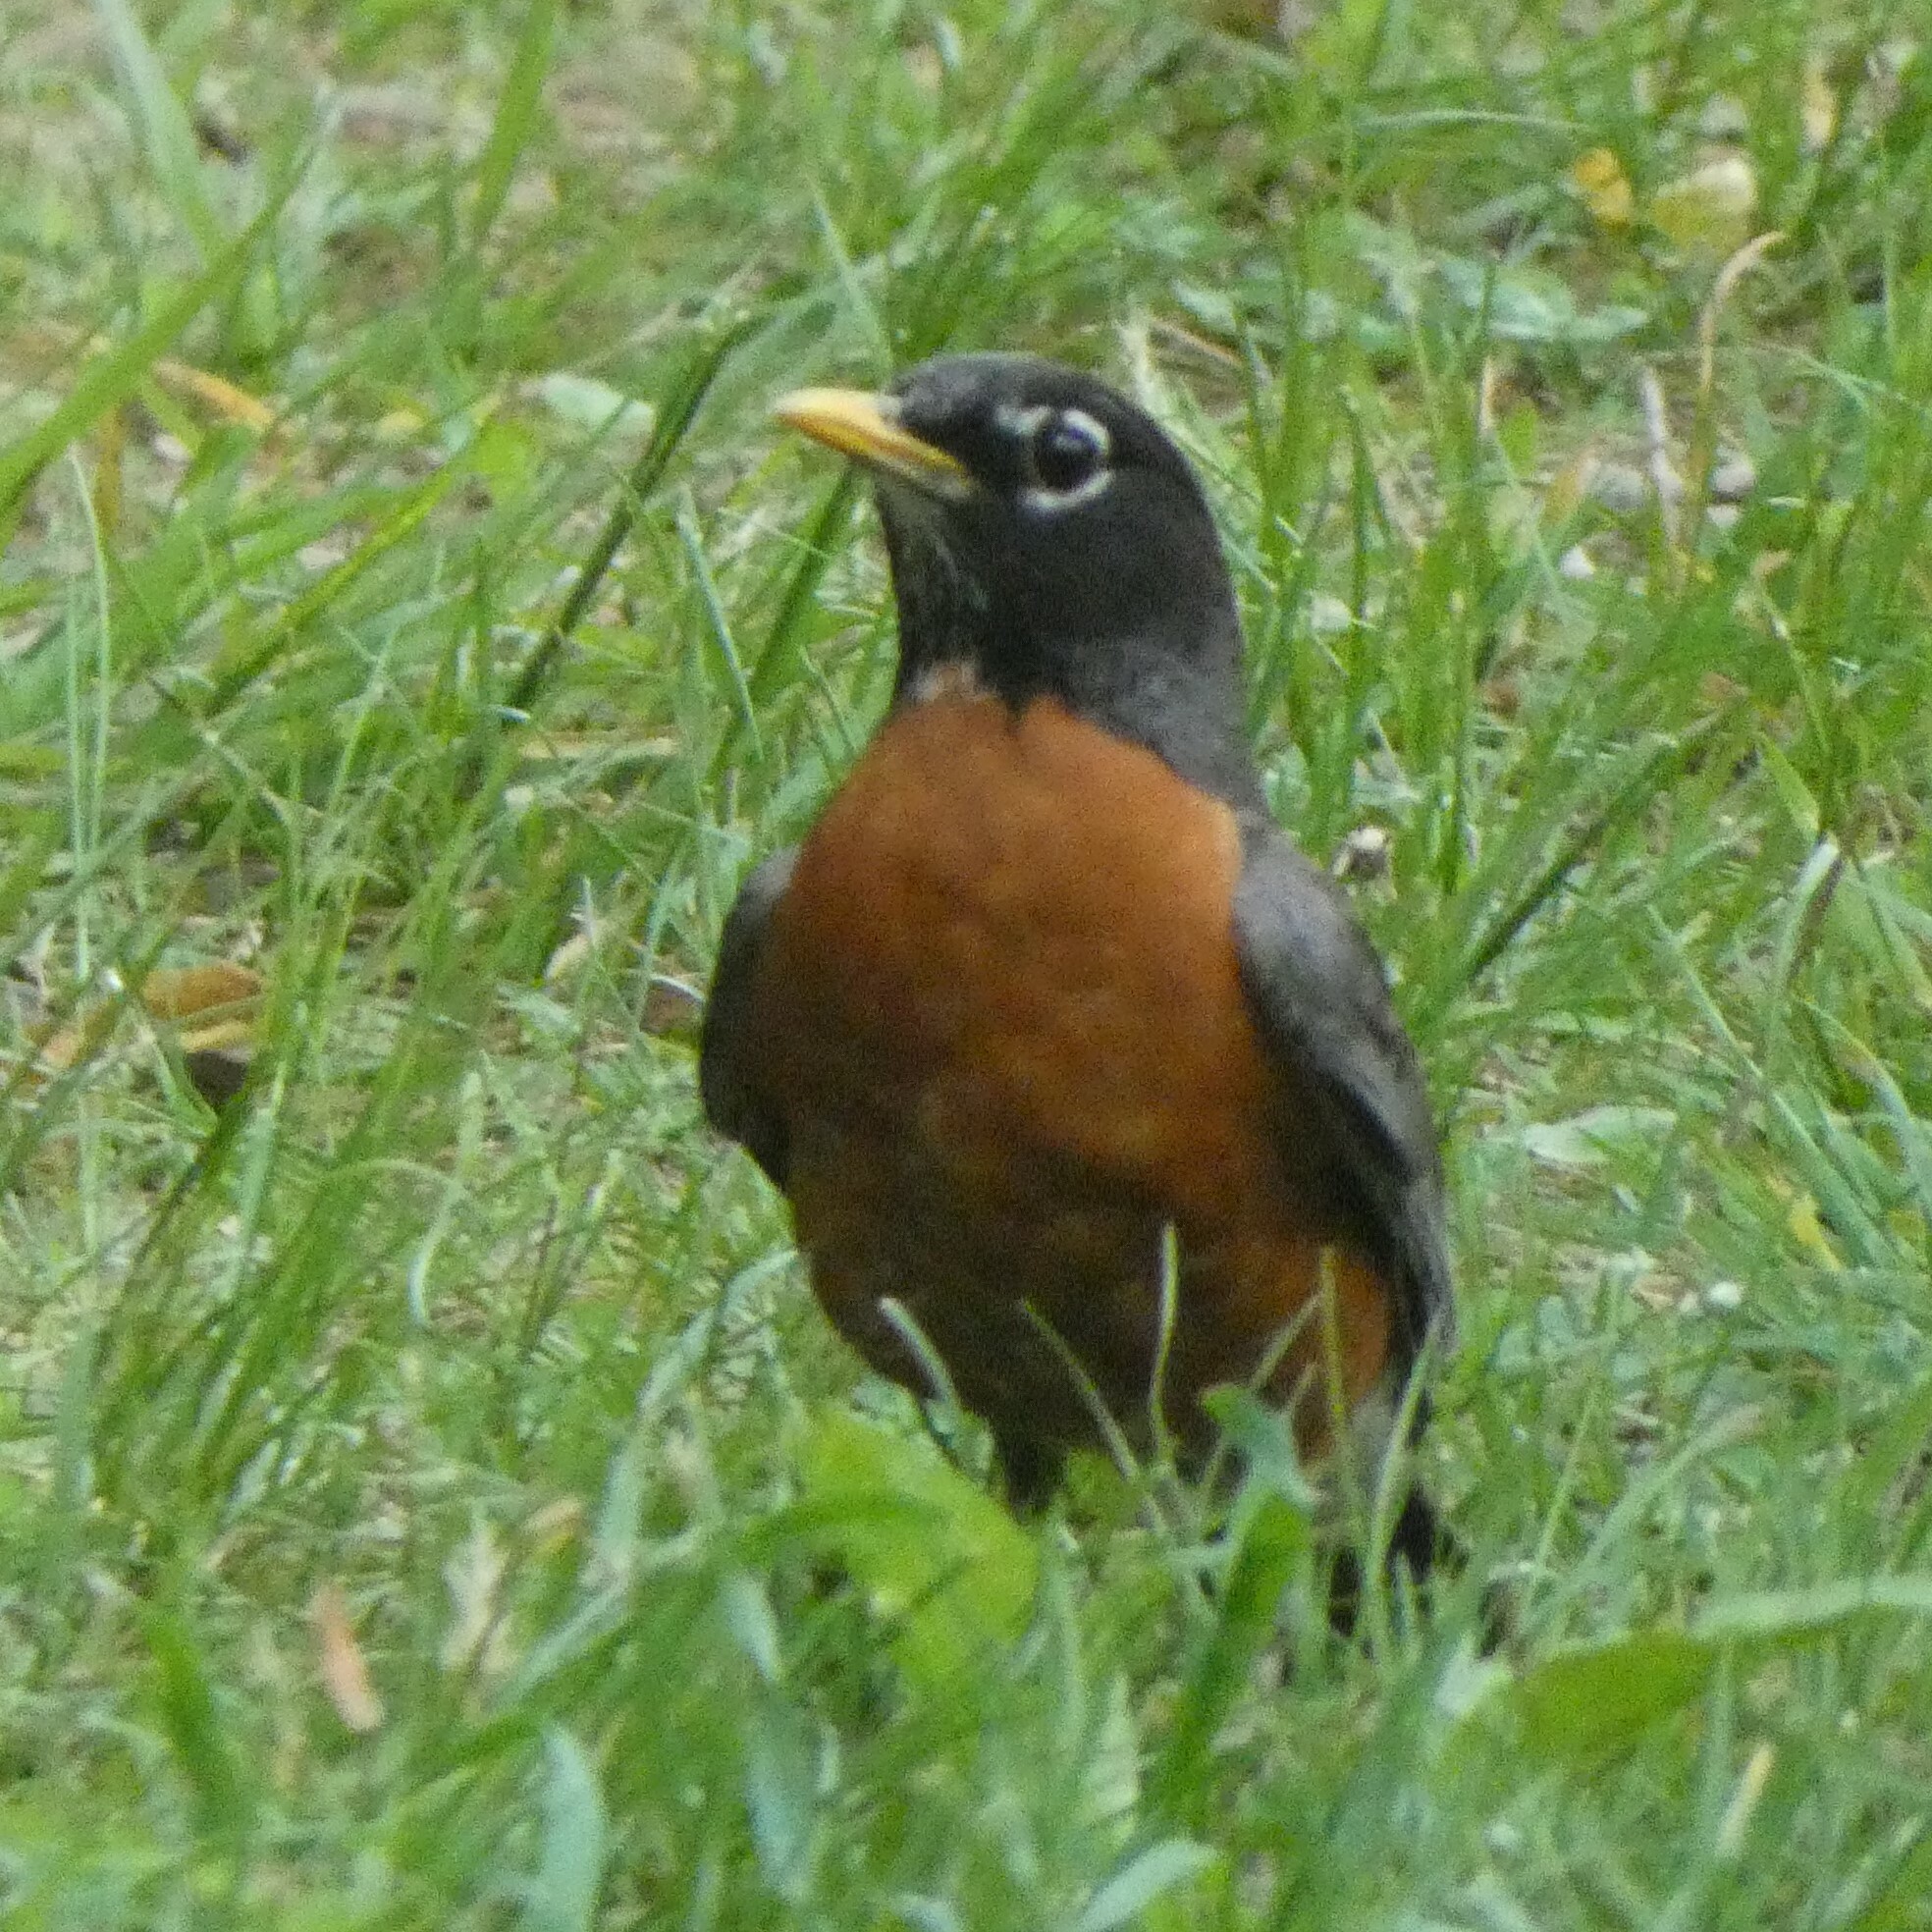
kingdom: Animalia
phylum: Chordata
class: Aves
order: Passeriformes
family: Turdidae
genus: Turdus
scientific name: Turdus migratorius
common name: American robin
